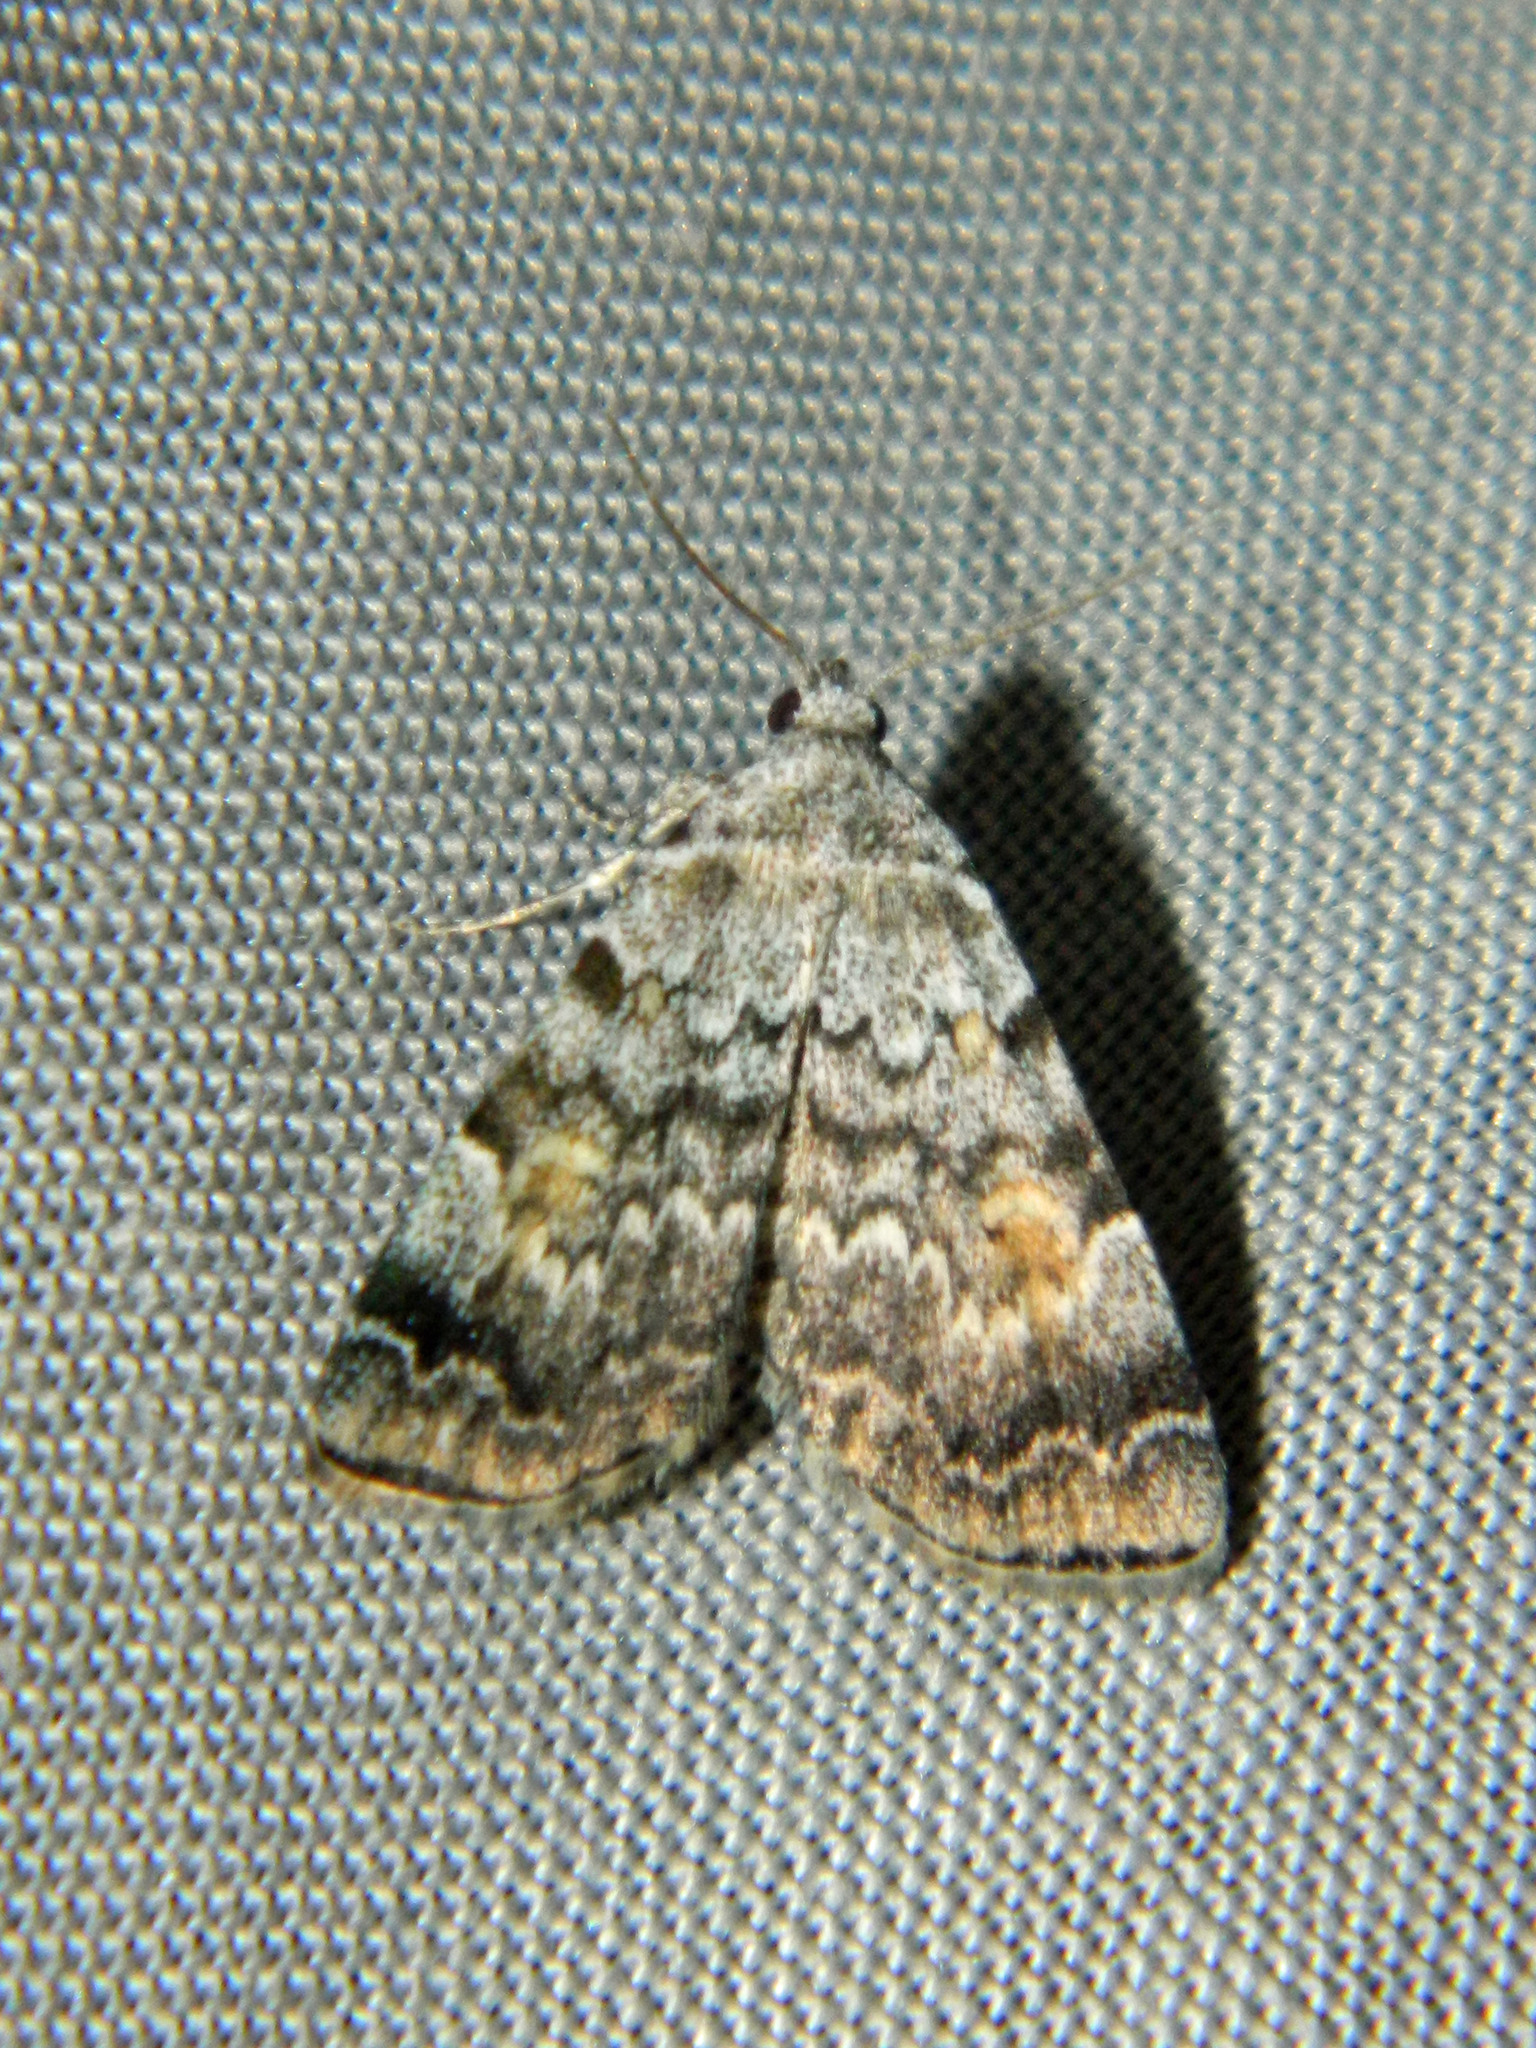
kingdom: Animalia
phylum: Arthropoda
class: Insecta
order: Lepidoptera
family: Erebidae
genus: Idia
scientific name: Idia americalis
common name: American idia moth
